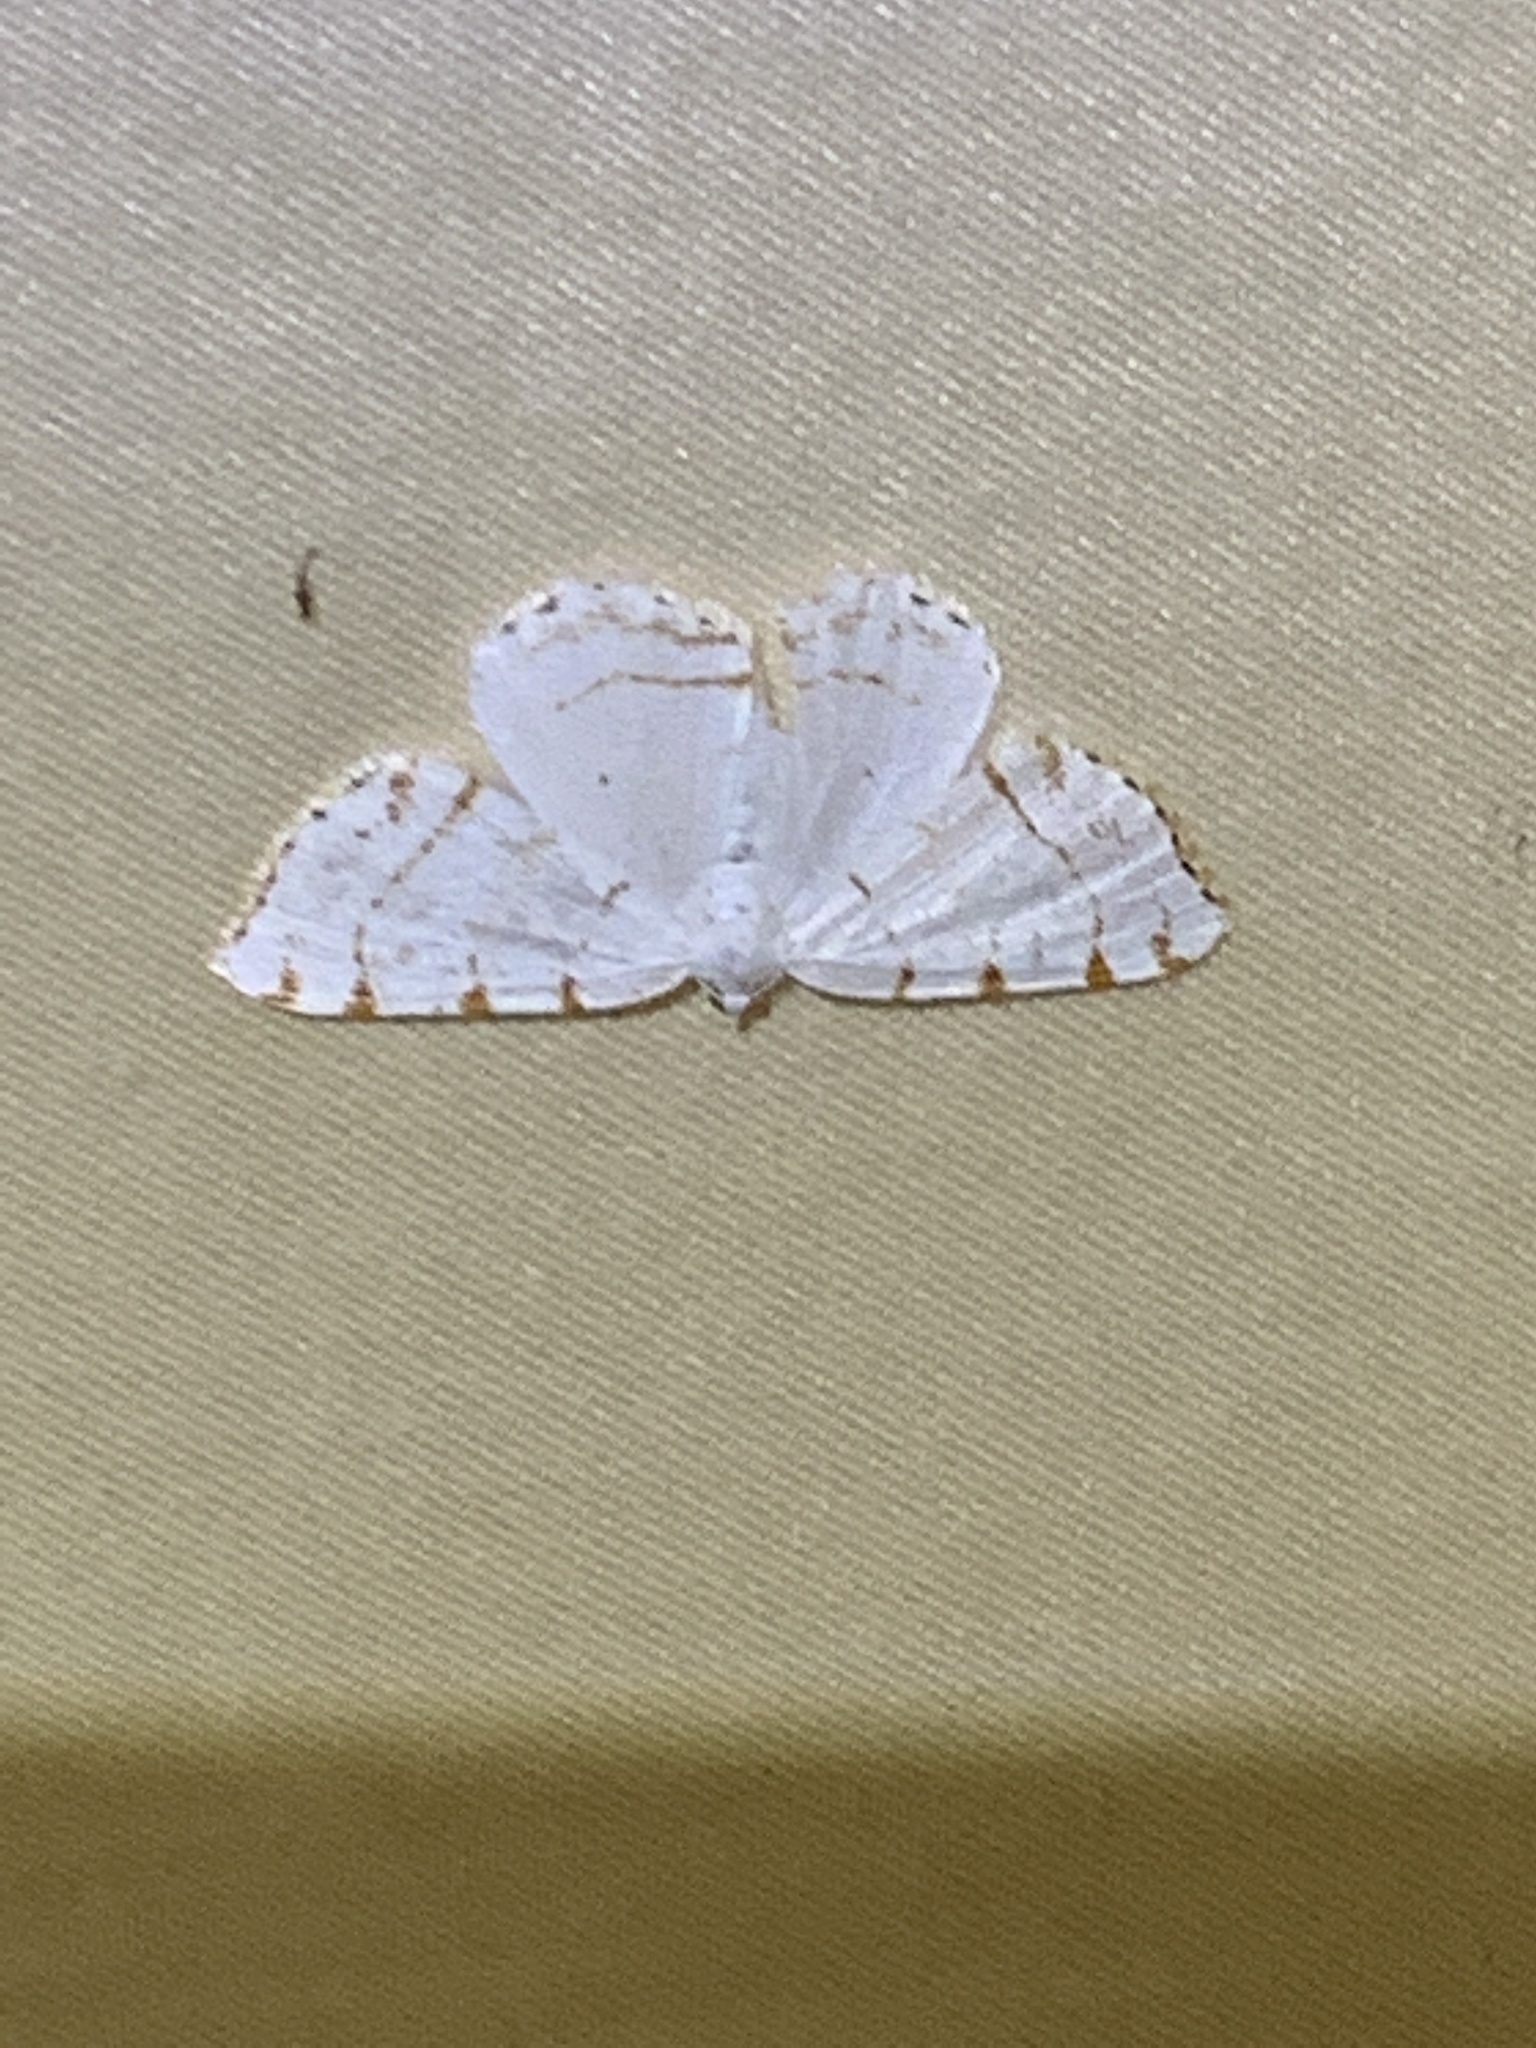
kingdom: Animalia
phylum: Arthropoda
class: Insecta
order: Lepidoptera
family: Geometridae
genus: Macaria
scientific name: Macaria pustularia
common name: Lesser maple spanworm moth
